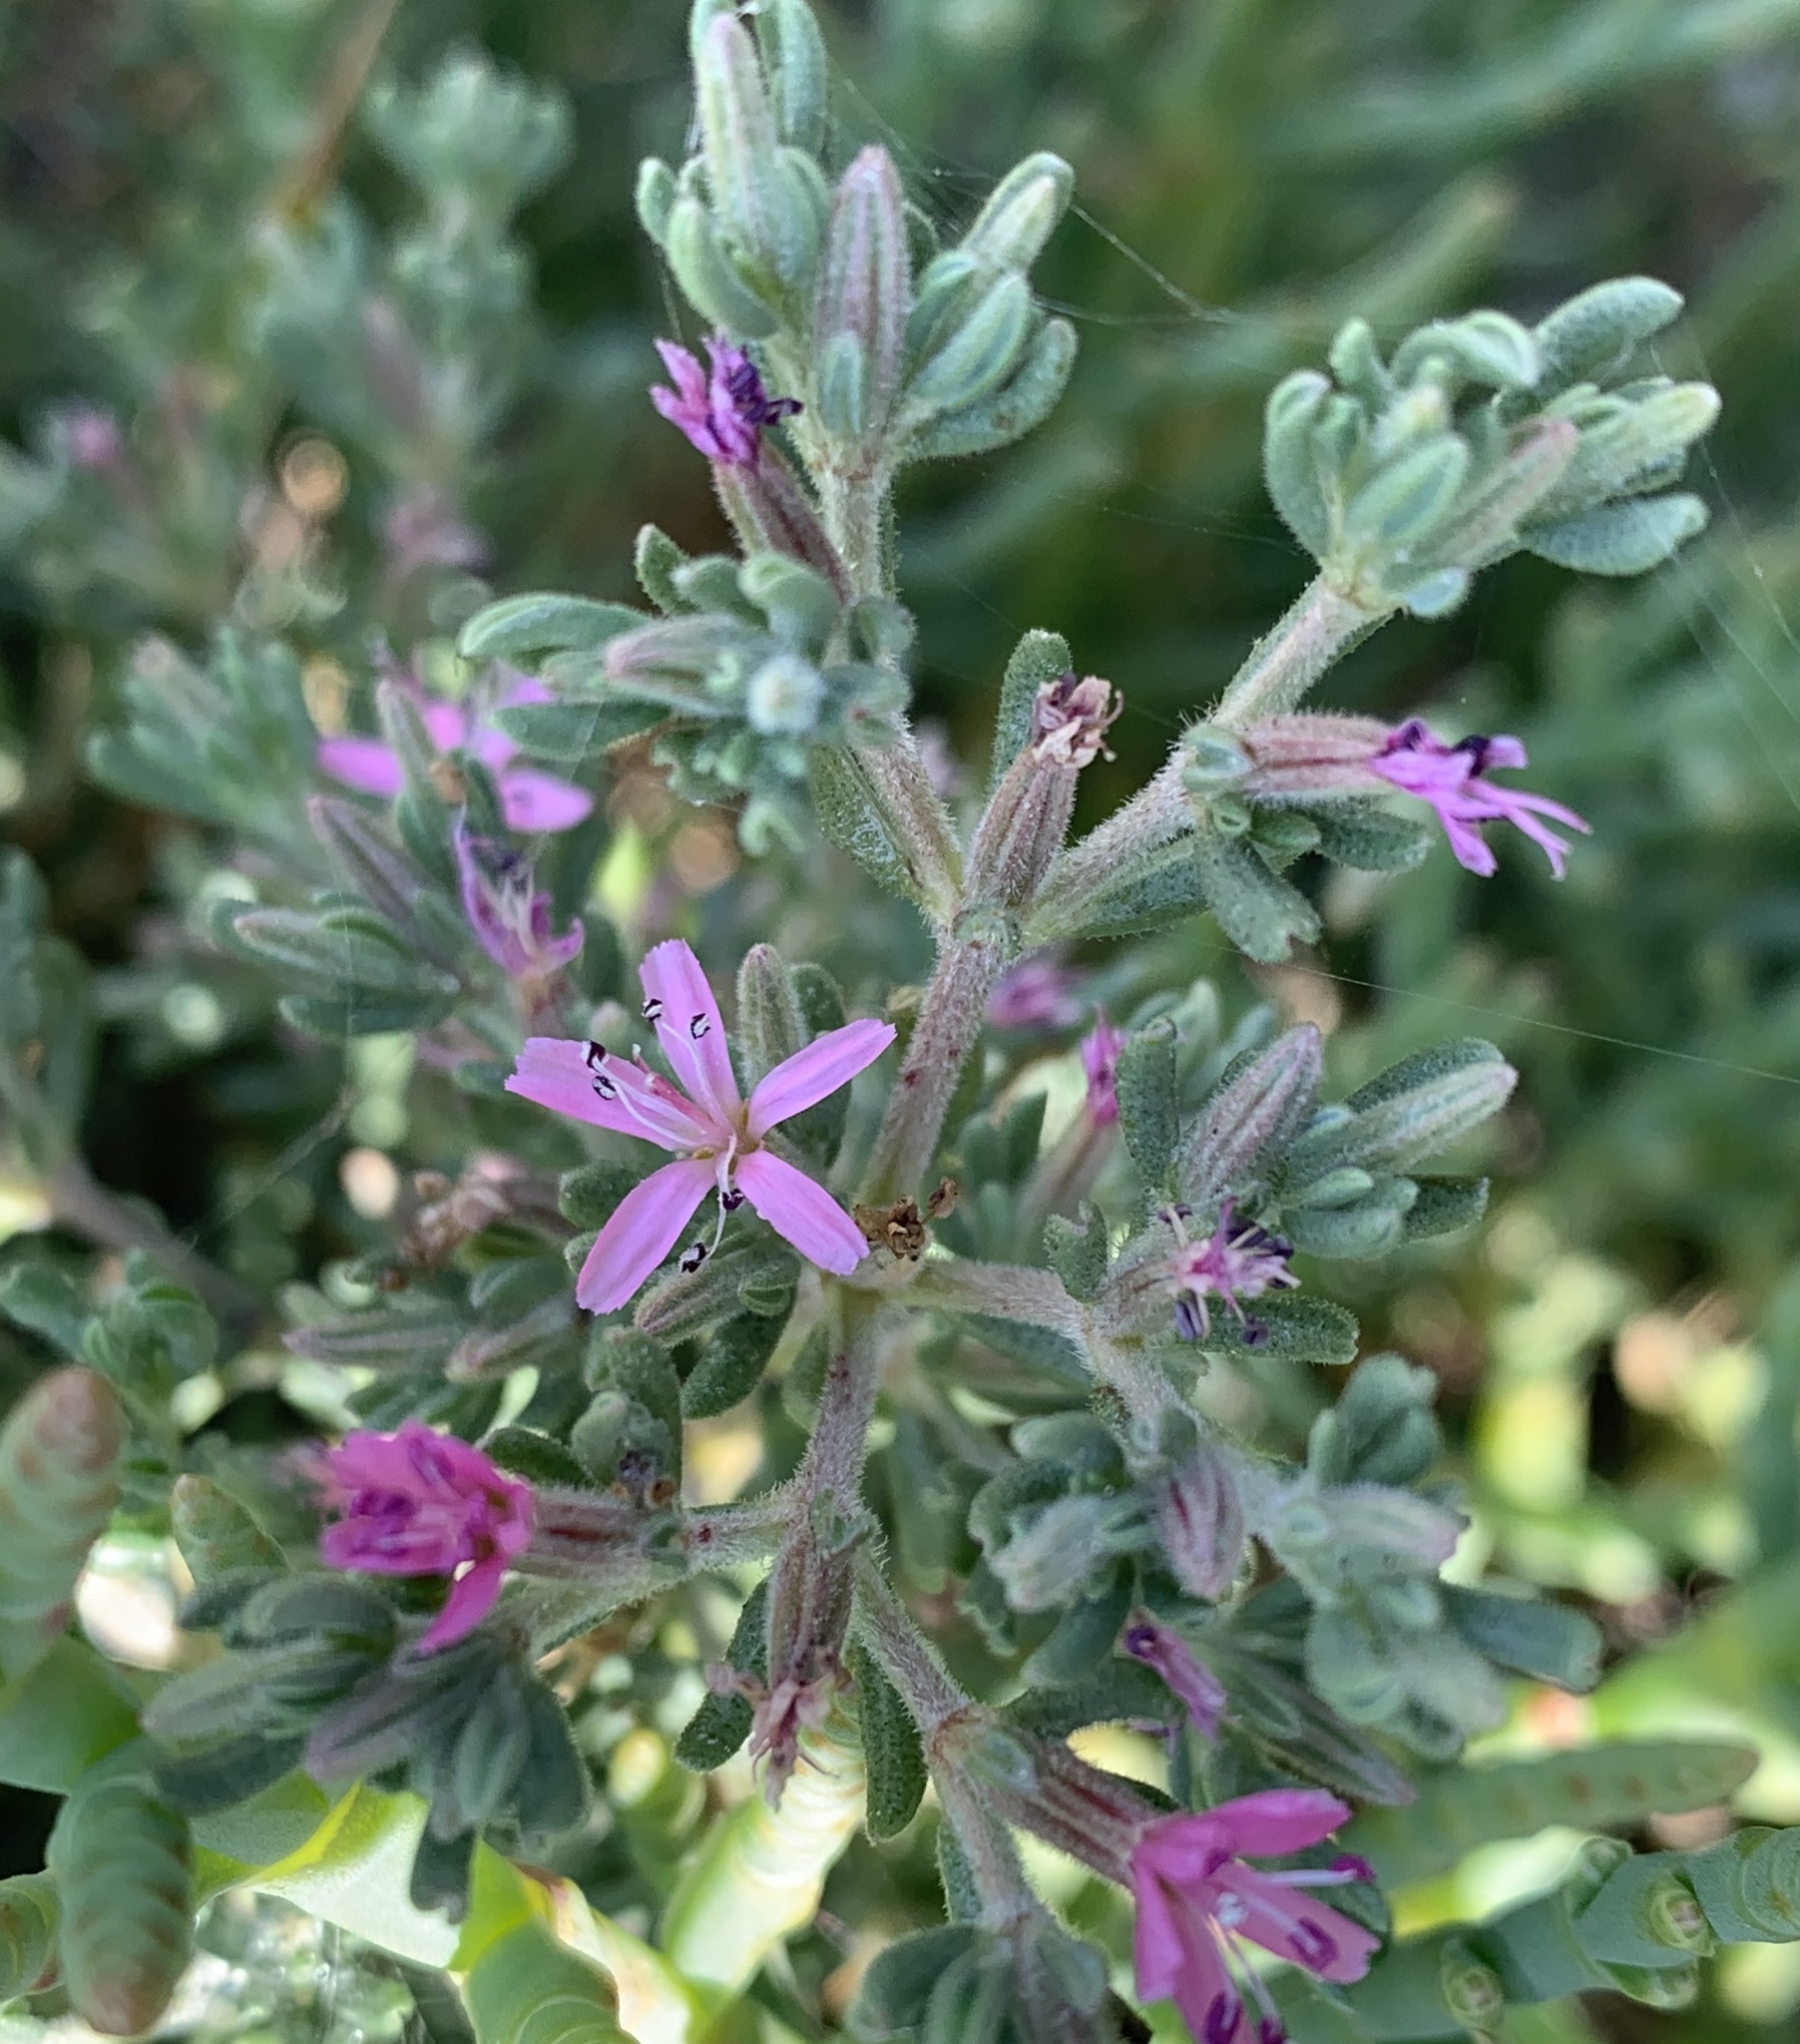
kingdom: Plantae
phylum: Tracheophyta
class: Magnoliopsida
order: Caryophyllales
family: Frankeniaceae
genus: Frankenia
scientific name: Frankenia salina
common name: Alkali seaheath
